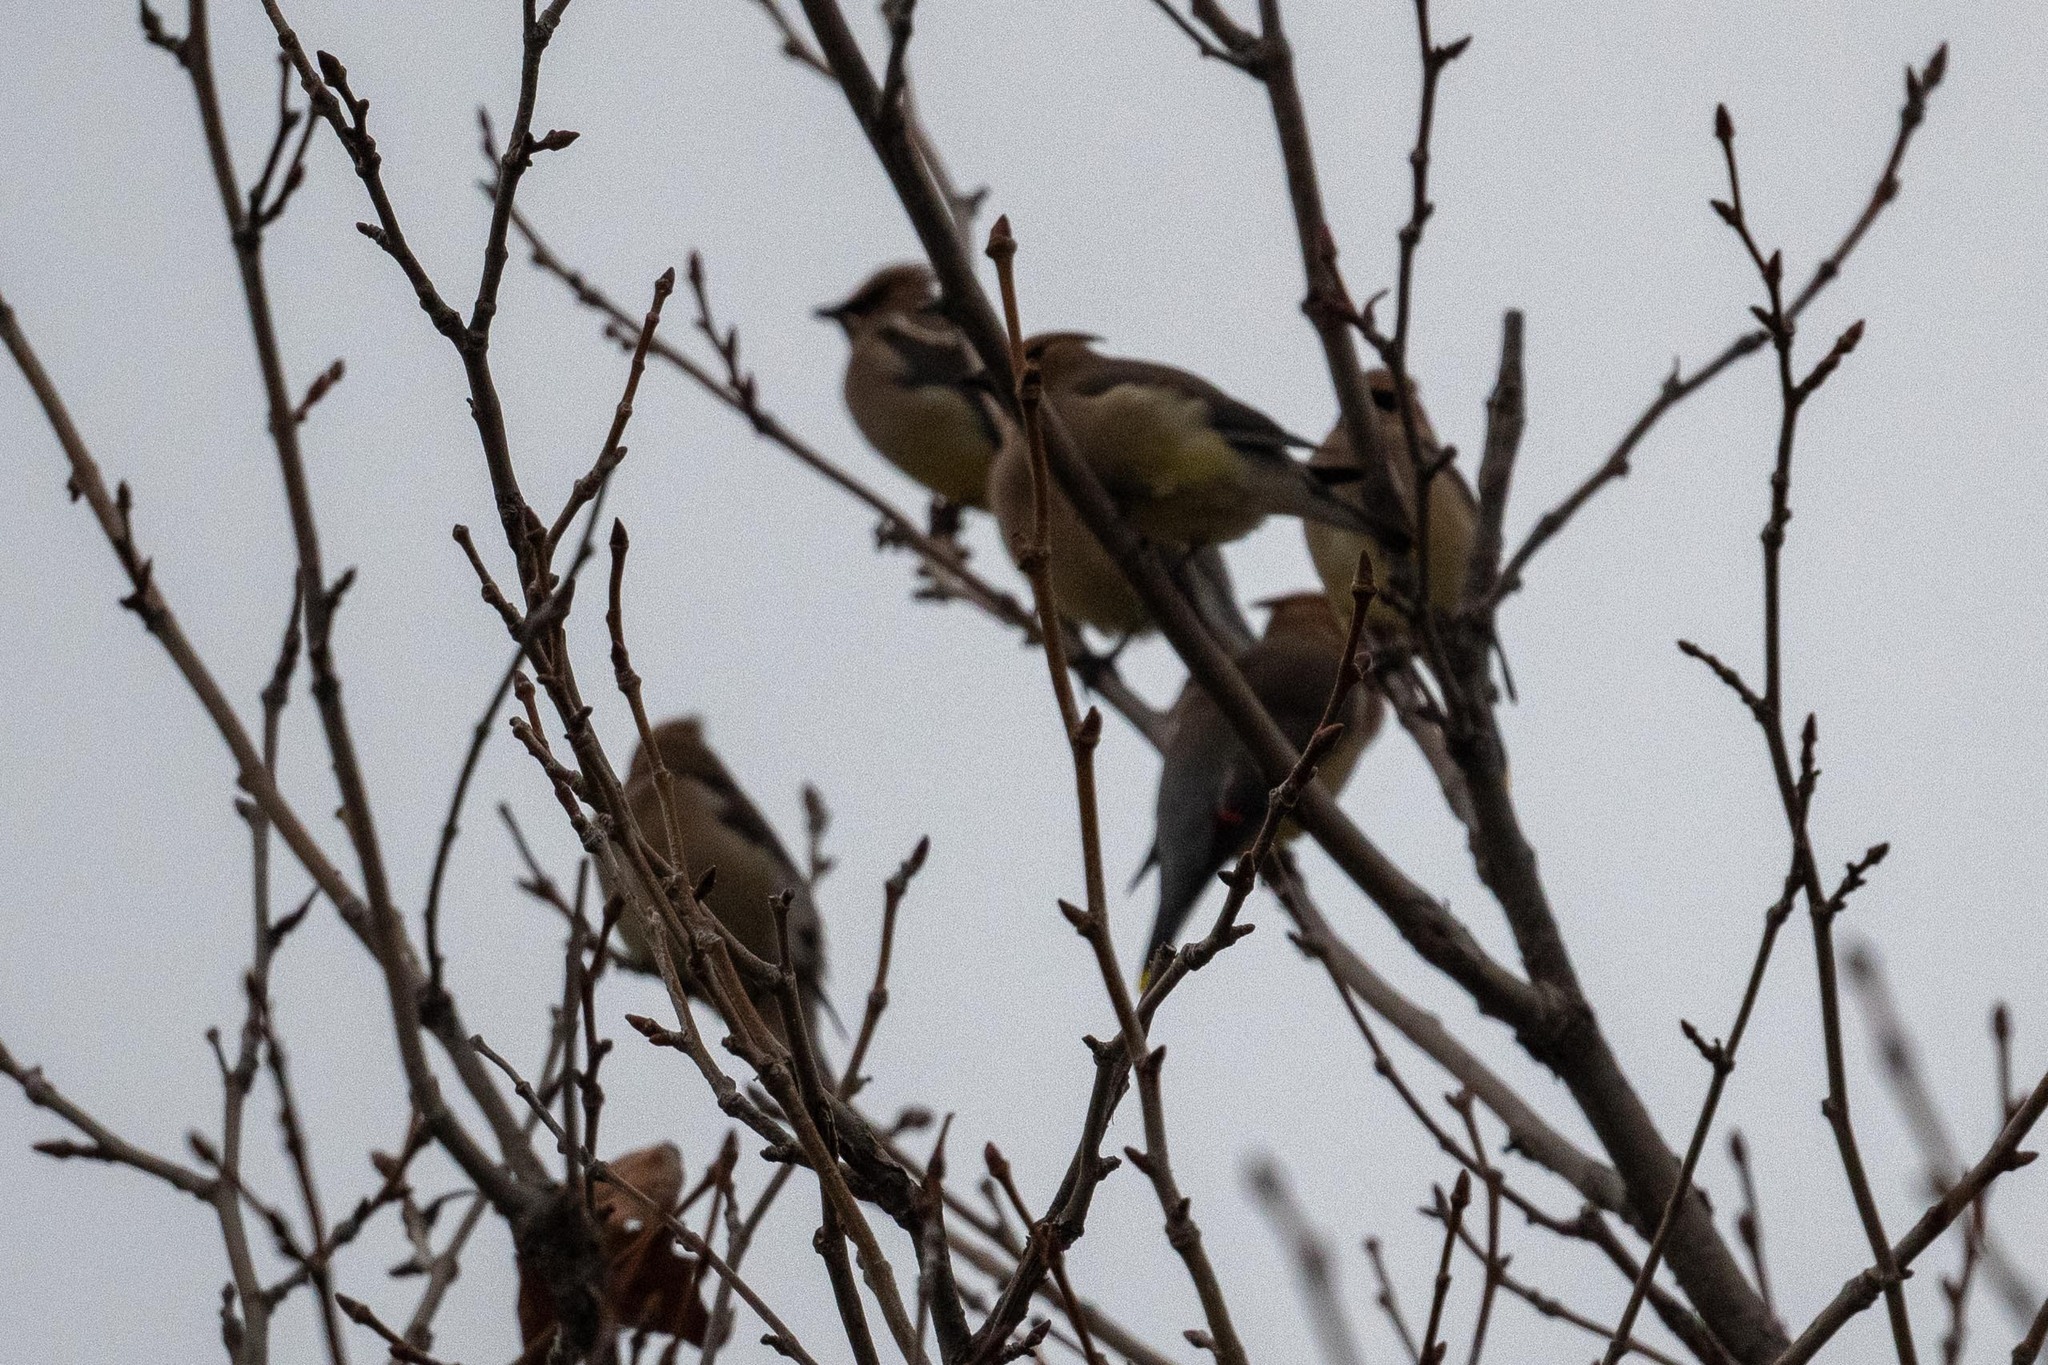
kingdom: Animalia
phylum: Chordata
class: Aves
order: Passeriformes
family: Bombycillidae
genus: Bombycilla
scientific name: Bombycilla cedrorum
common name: Cedar waxwing
